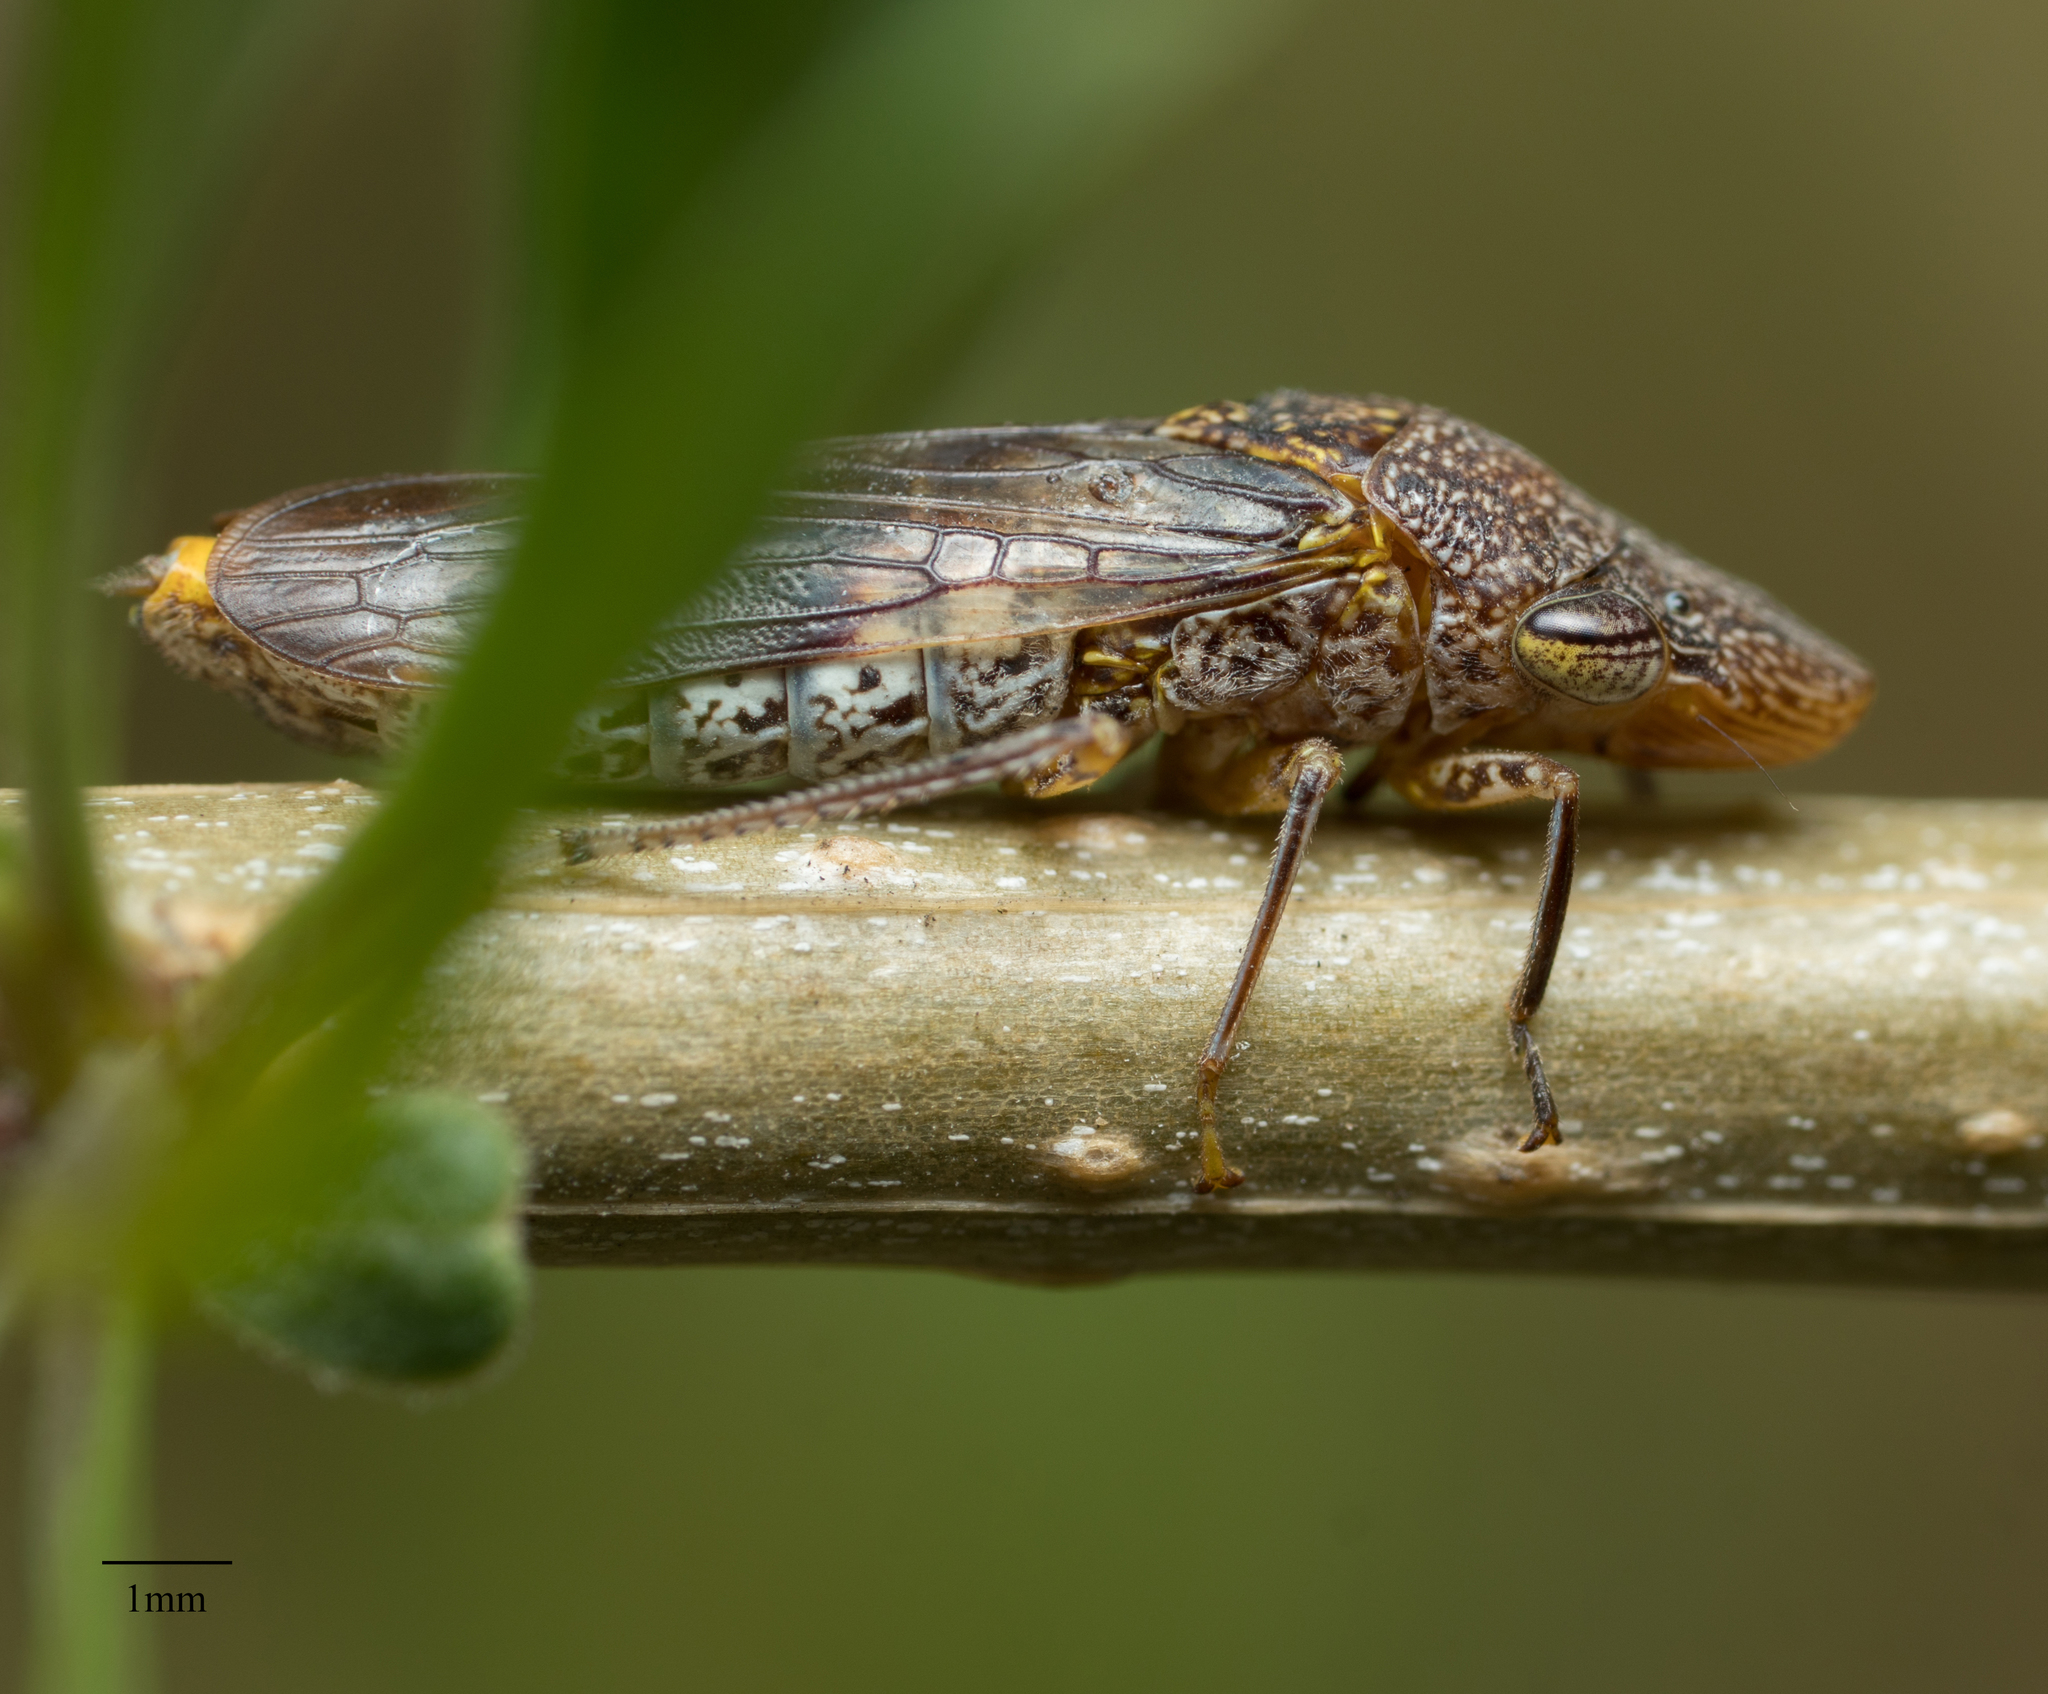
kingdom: Animalia
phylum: Arthropoda
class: Insecta
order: Hemiptera
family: Cicadellidae
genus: Homalodisca
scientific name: Homalodisca vitripennis
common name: Glassy-winged sharpshooter
